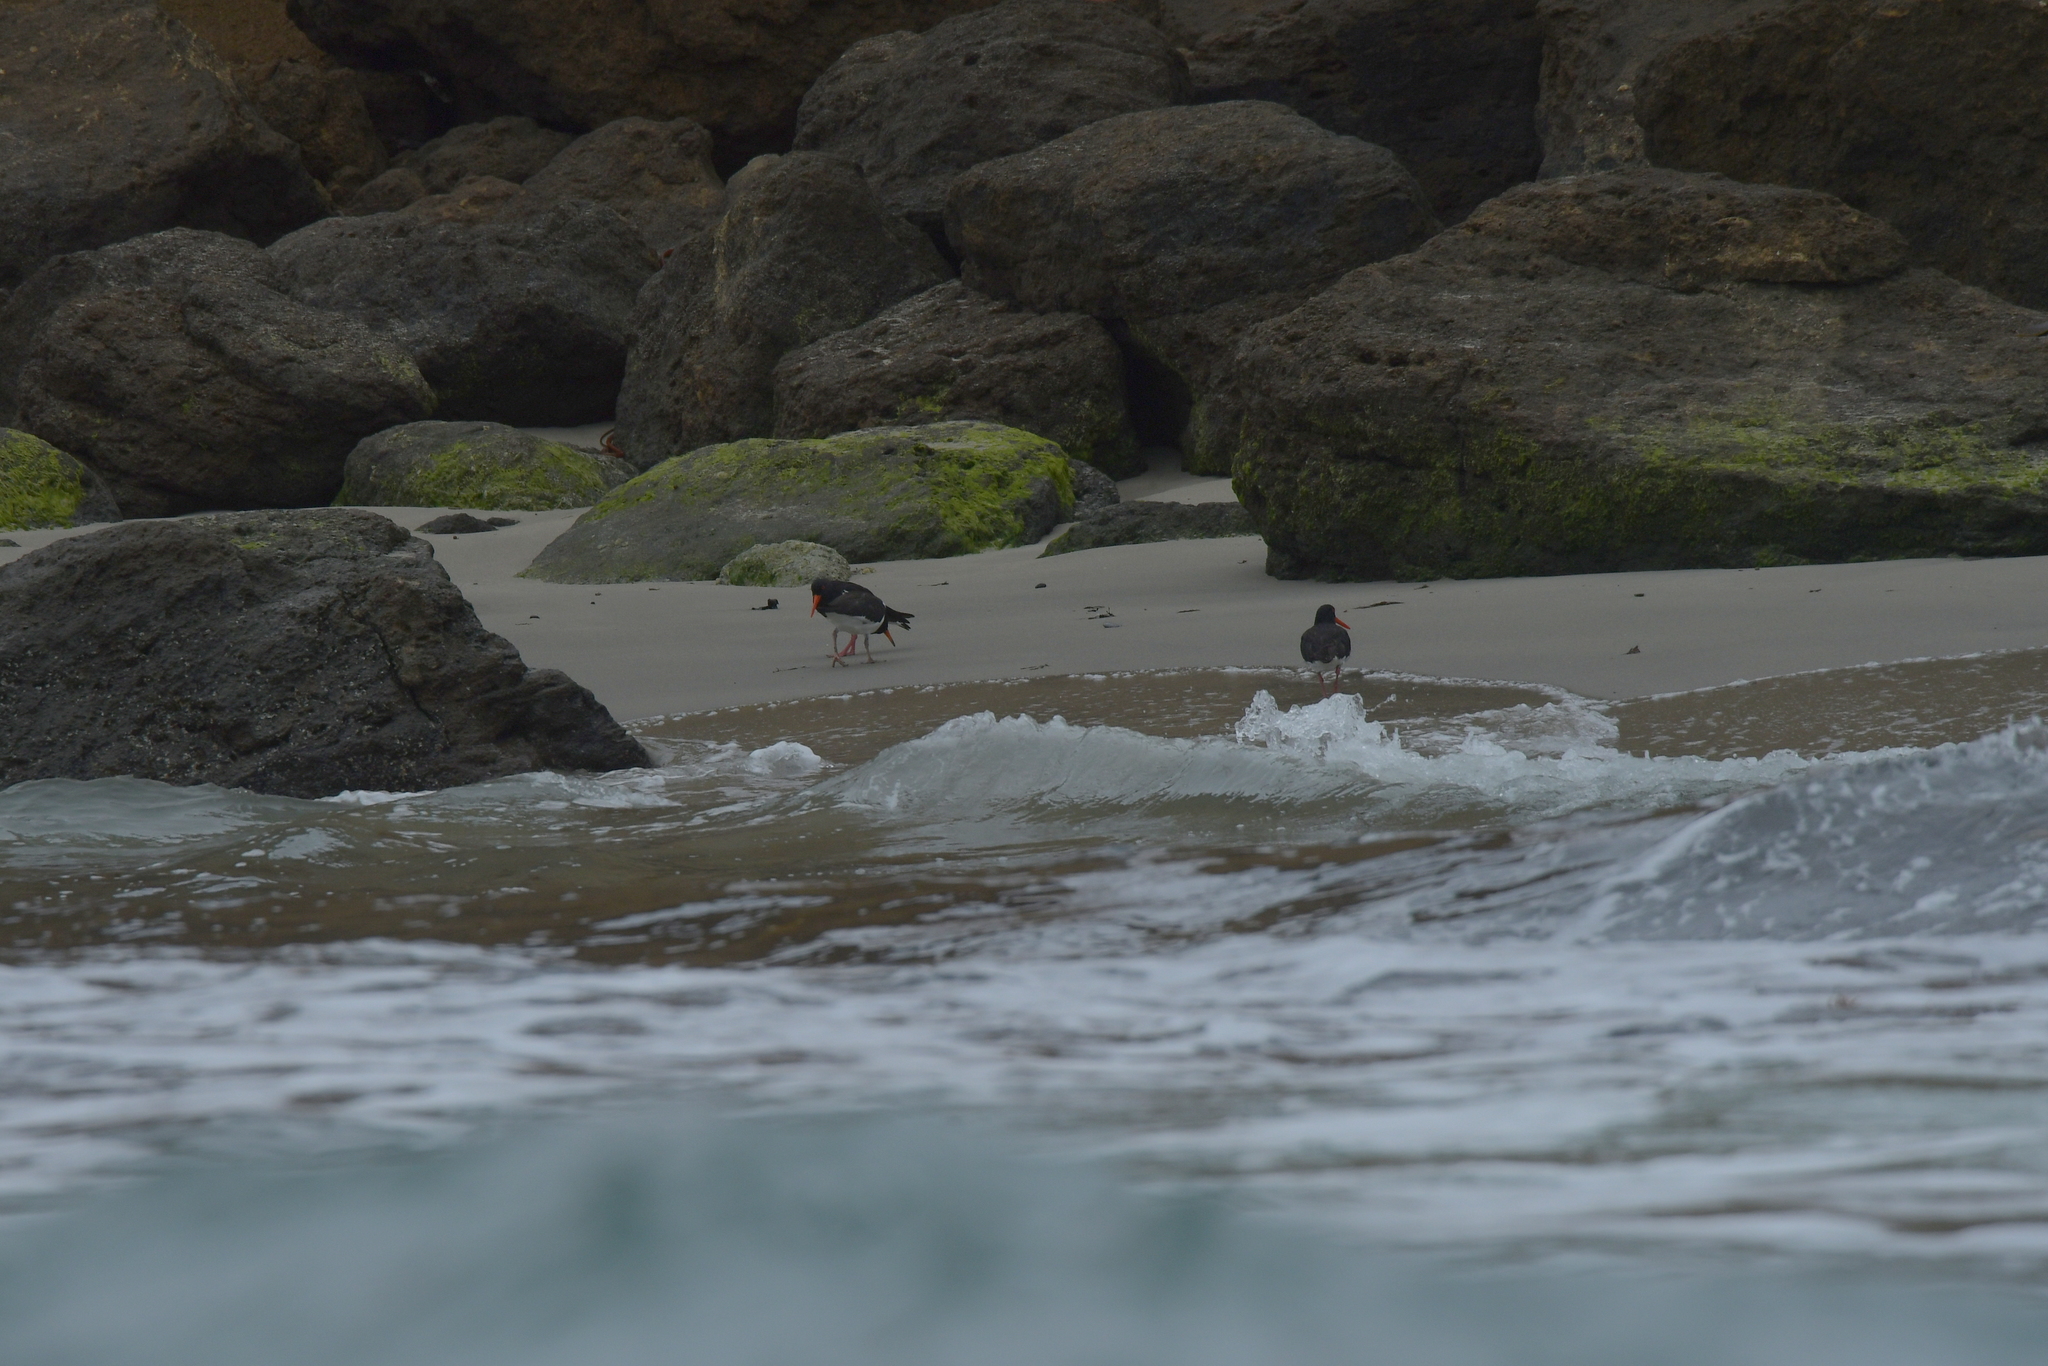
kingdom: Animalia
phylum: Chordata
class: Aves
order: Charadriiformes
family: Haematopodidae
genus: Haematopus
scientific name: Haematopus chathamensis
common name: Chatham oystercatcher
